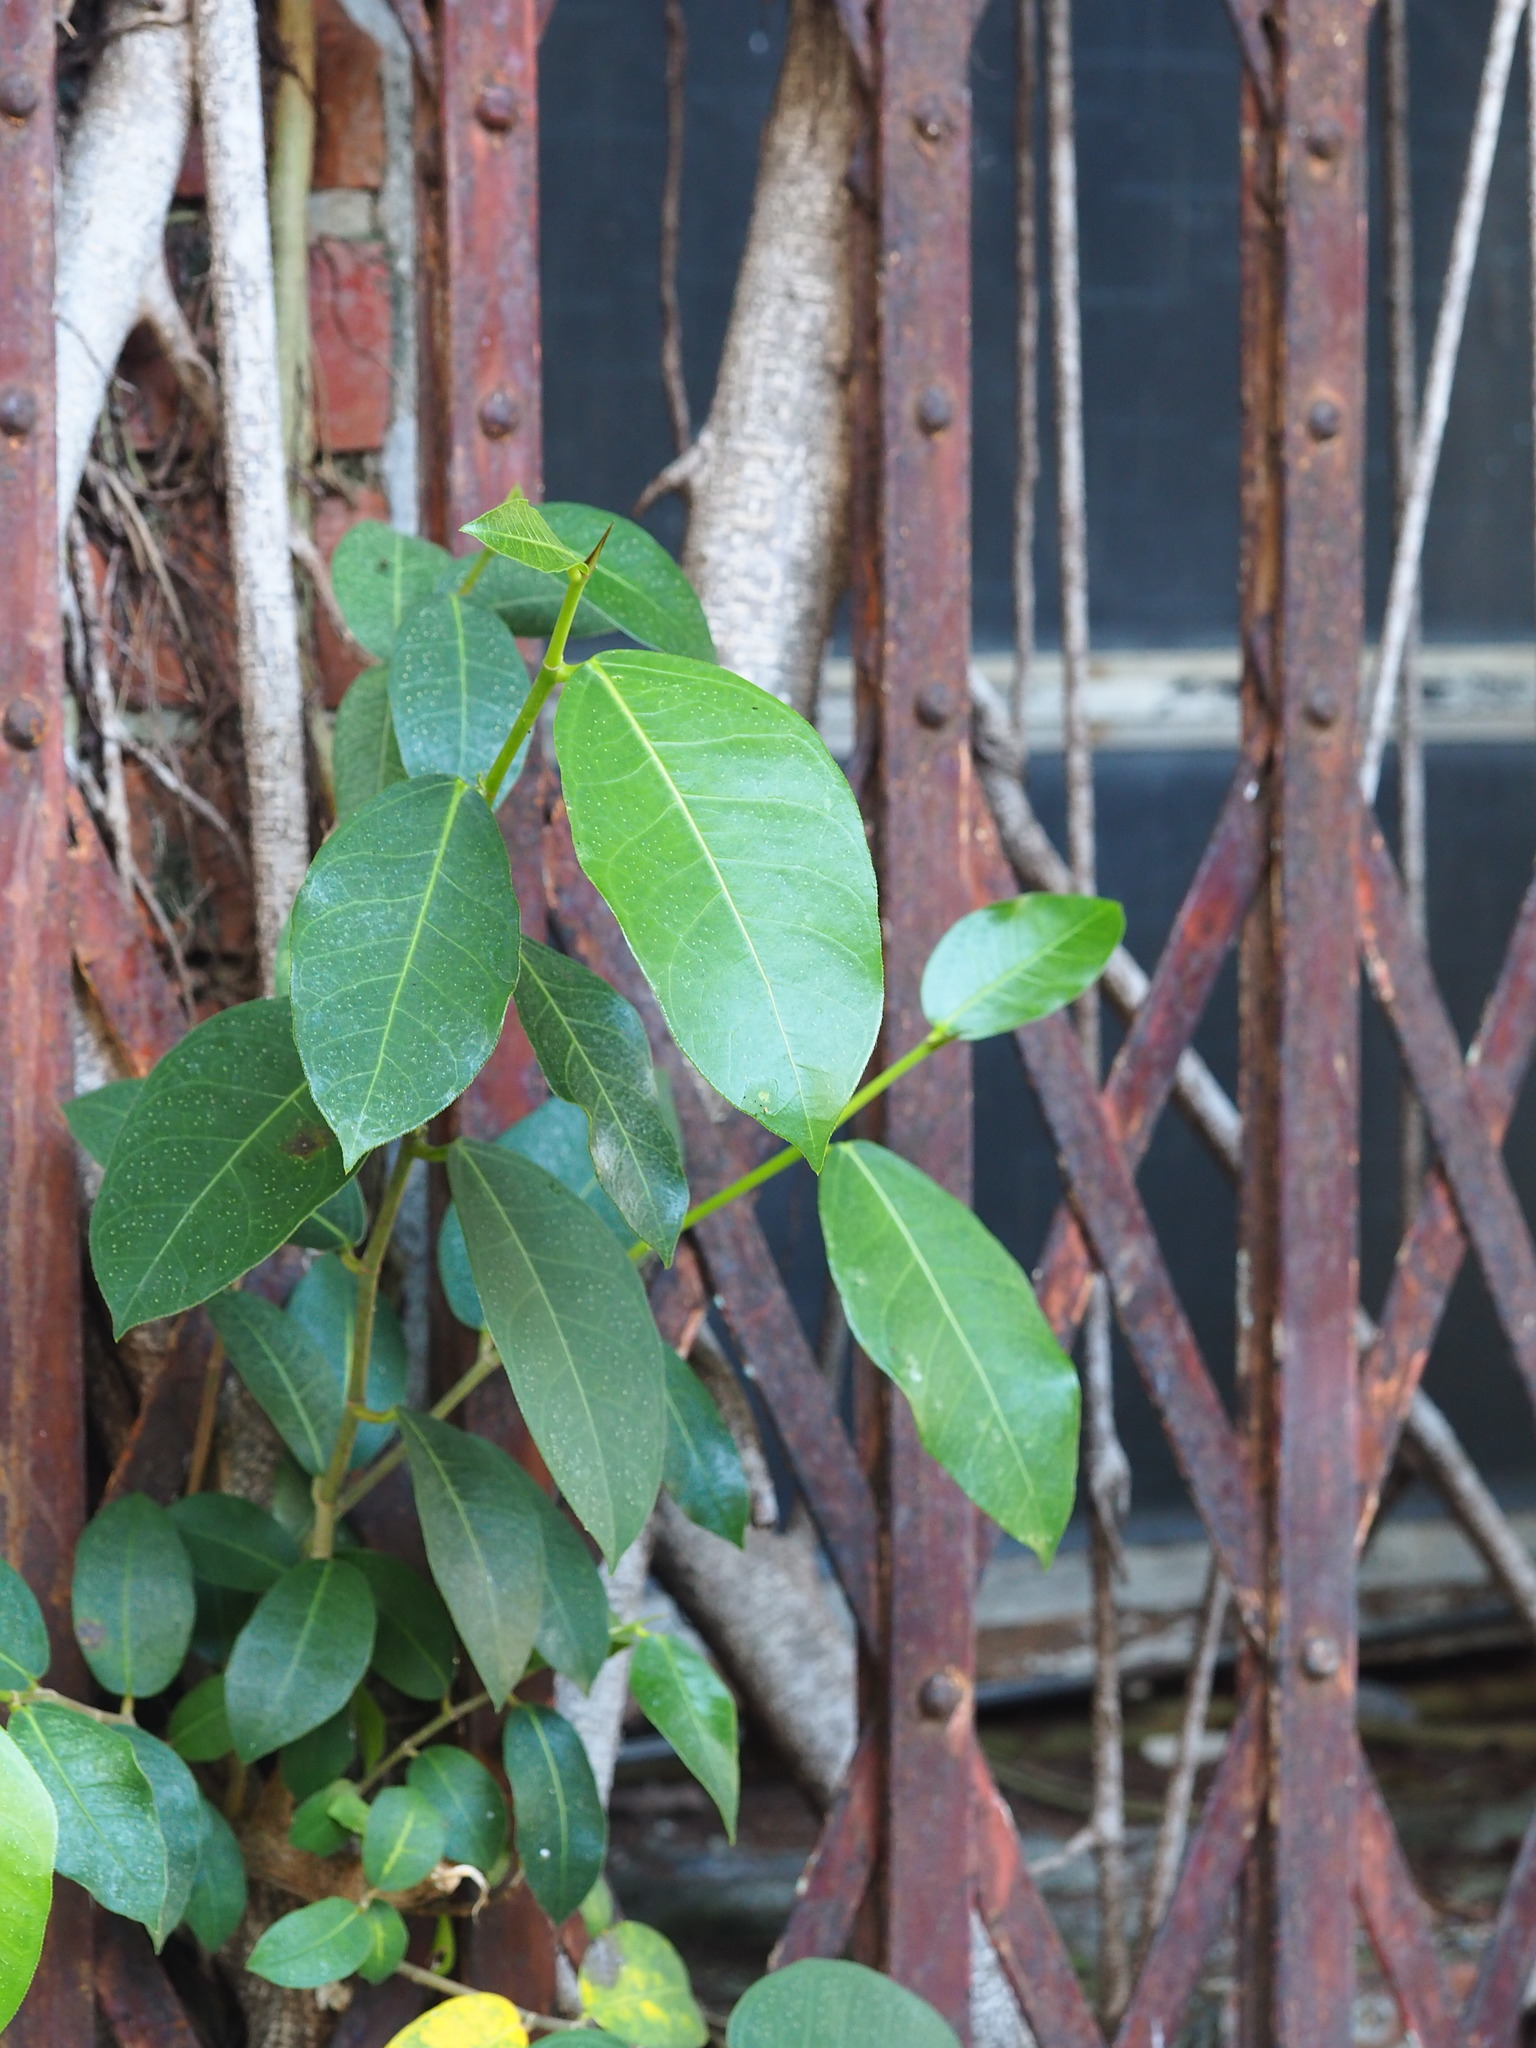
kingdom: Plantae
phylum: Tracheophyta
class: Magnoliopsida
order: Rosales
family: Moraceae
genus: Ficus
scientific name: Ficus tinctoria
